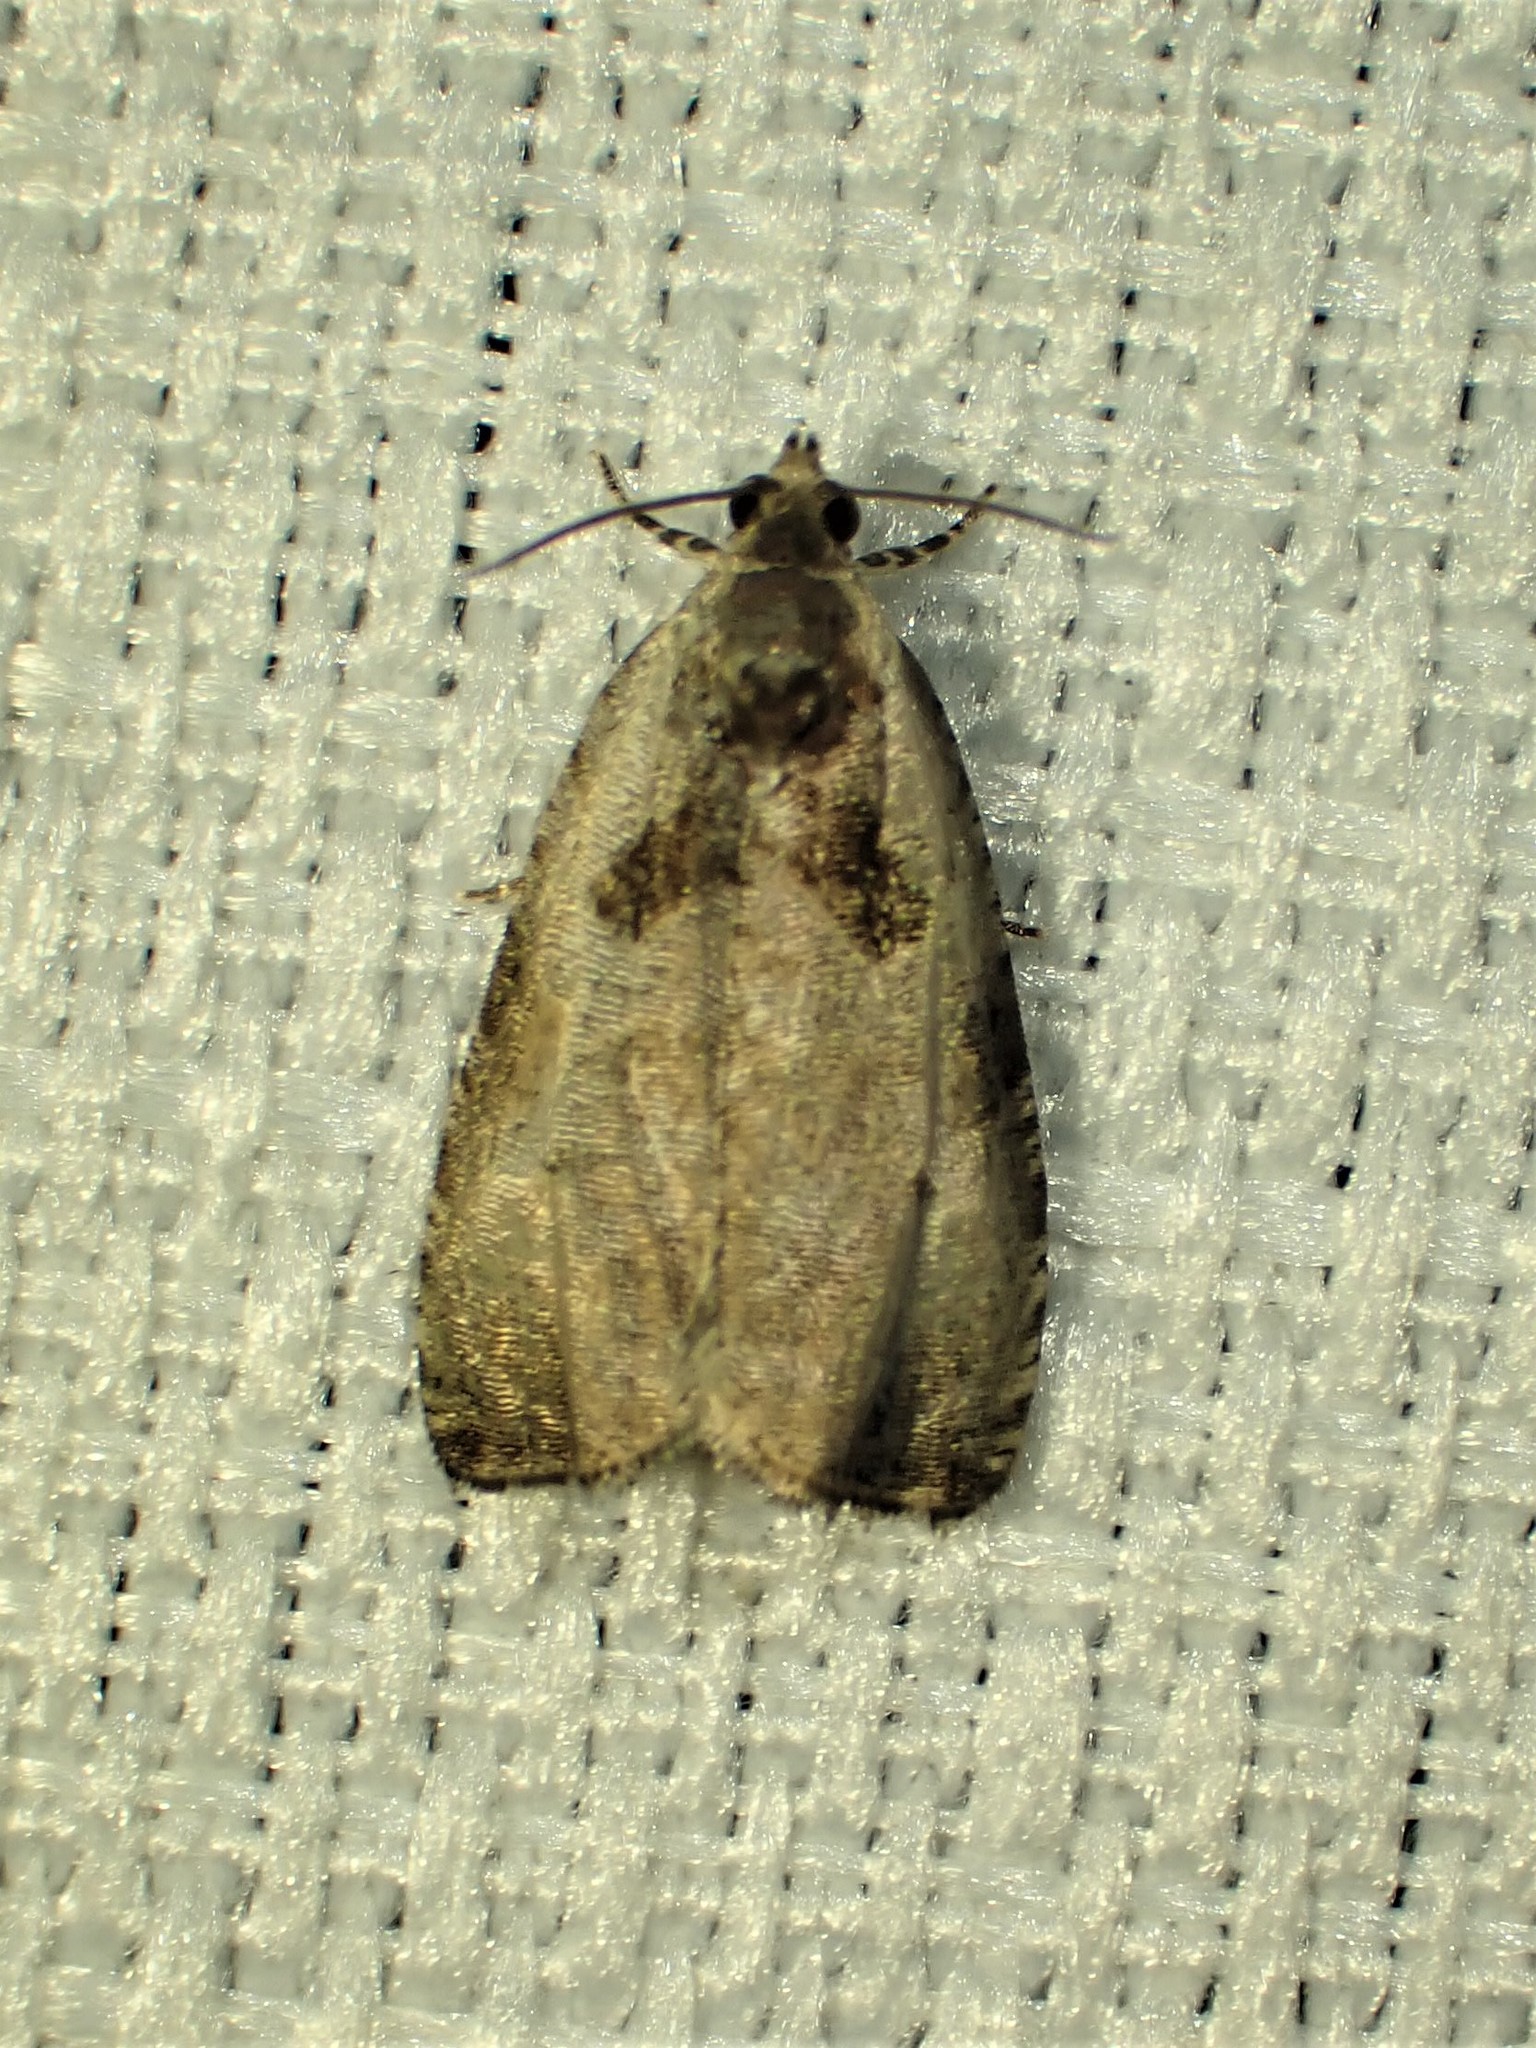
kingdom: Animalia
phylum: Arthropoda
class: Insecta
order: Lepidoptera
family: Tortricidae
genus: Olethreutes
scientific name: Olethreutes punctanum
